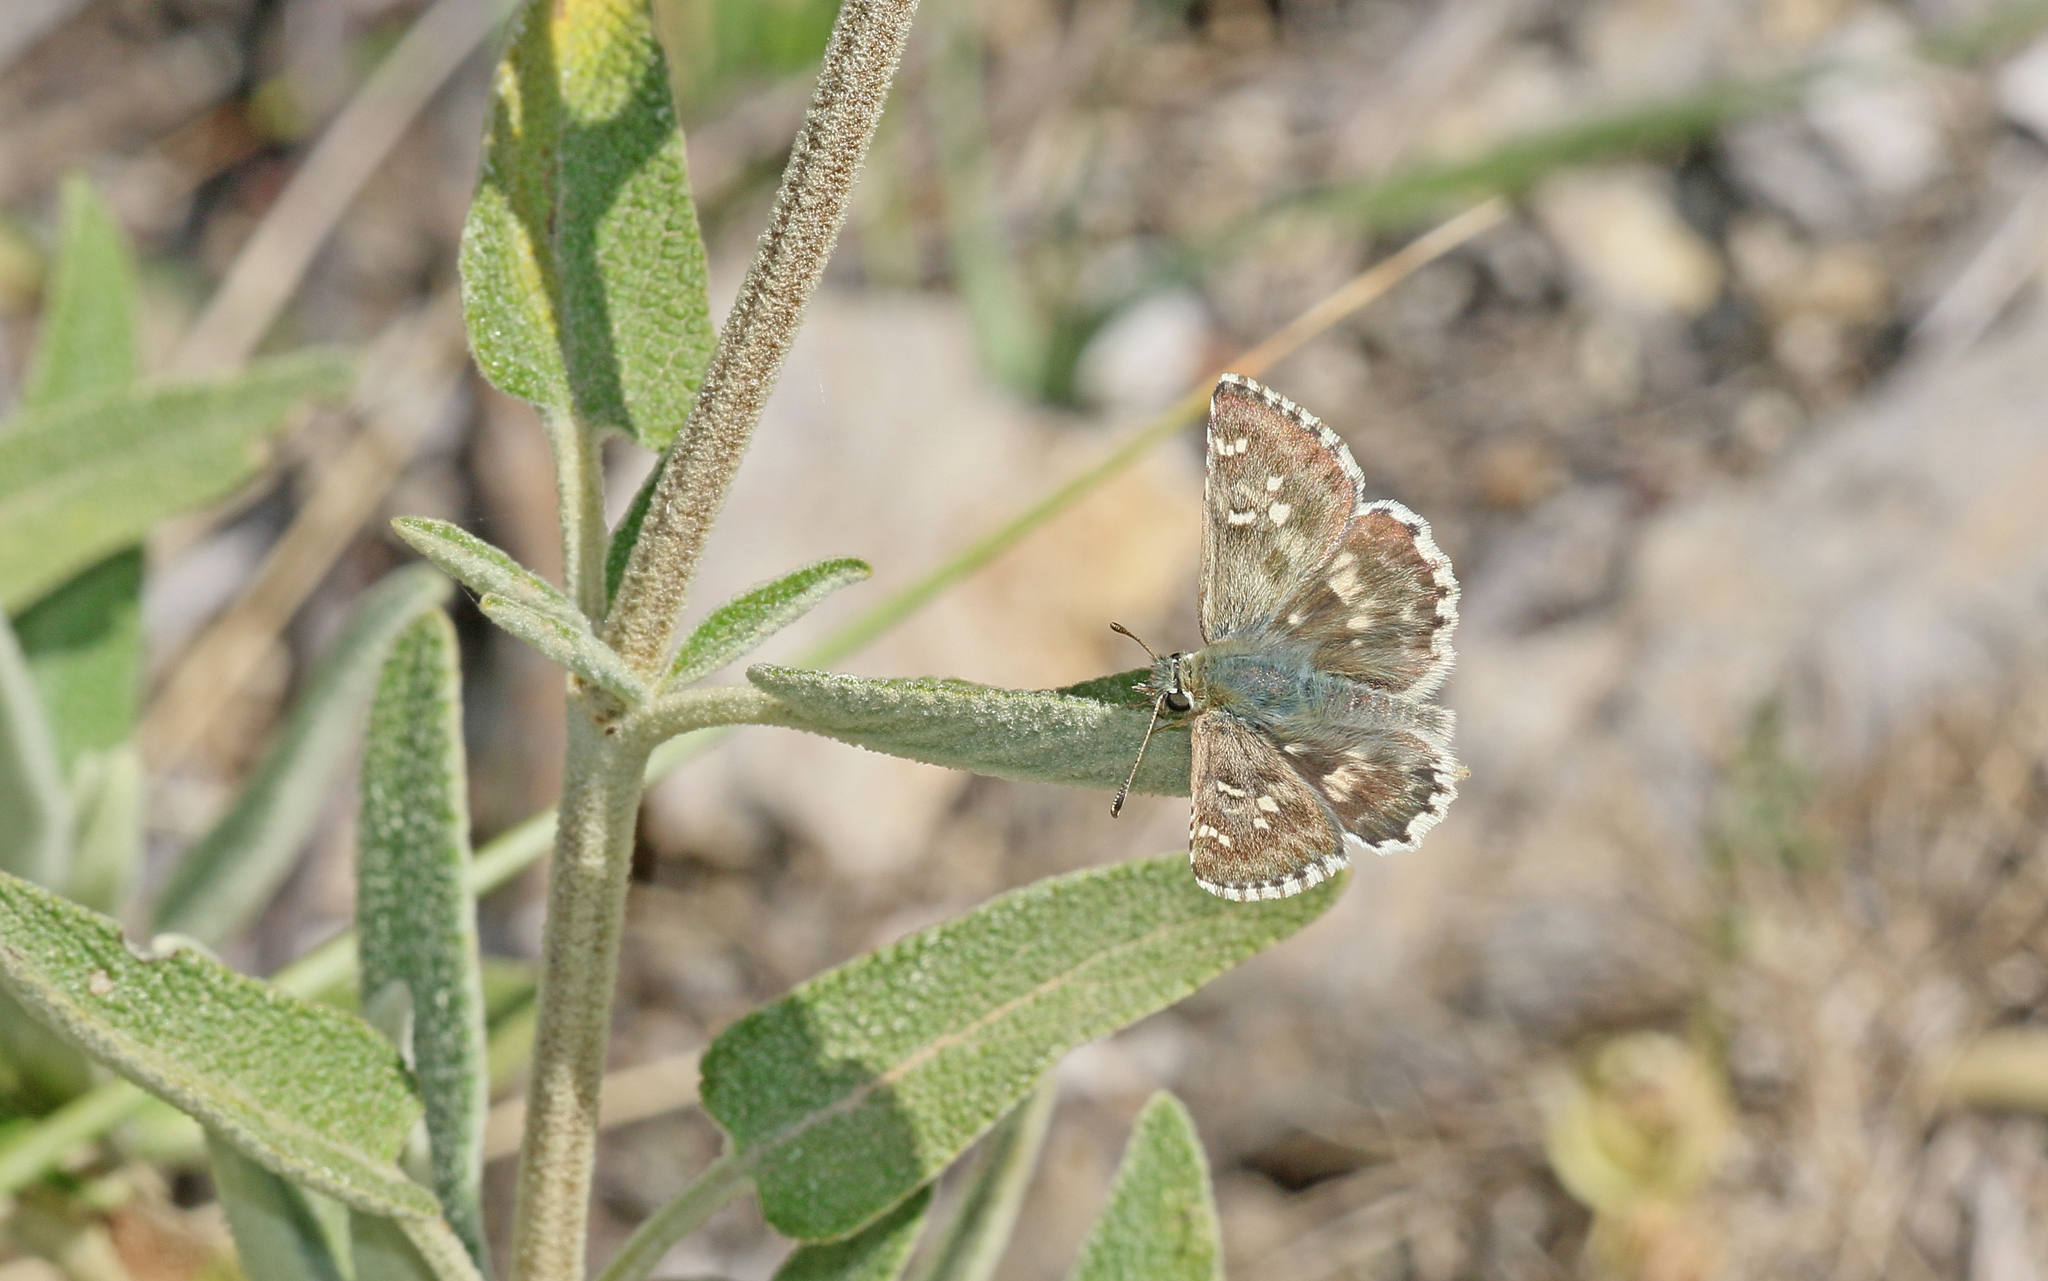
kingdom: Animalia
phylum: Arthropoda
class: Insecta
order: Lepidoptera
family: Hesperiidae
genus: Syrichtus
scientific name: Syrichtus Muschampia proto
